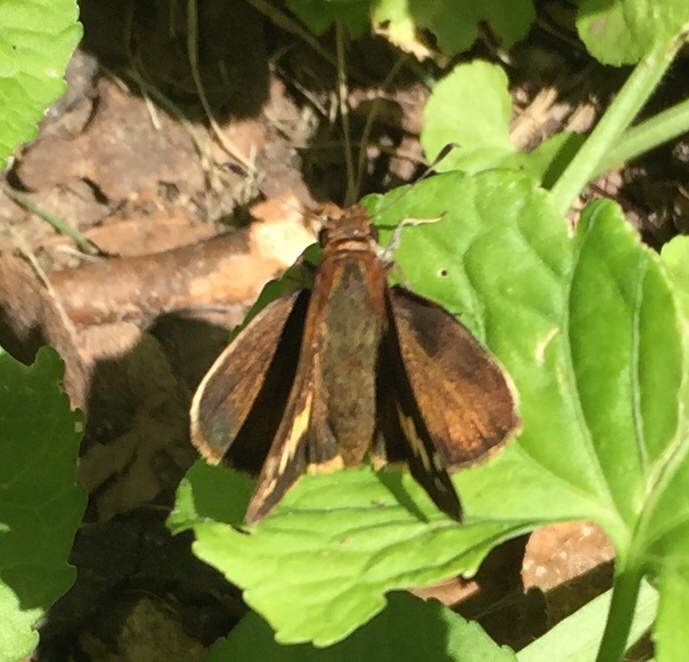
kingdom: Animalia
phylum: Arthropoda
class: Insecta
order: Lepidoptera
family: Hesperiidae
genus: Lon
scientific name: Lon zabulon
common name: Zabulon skipper
